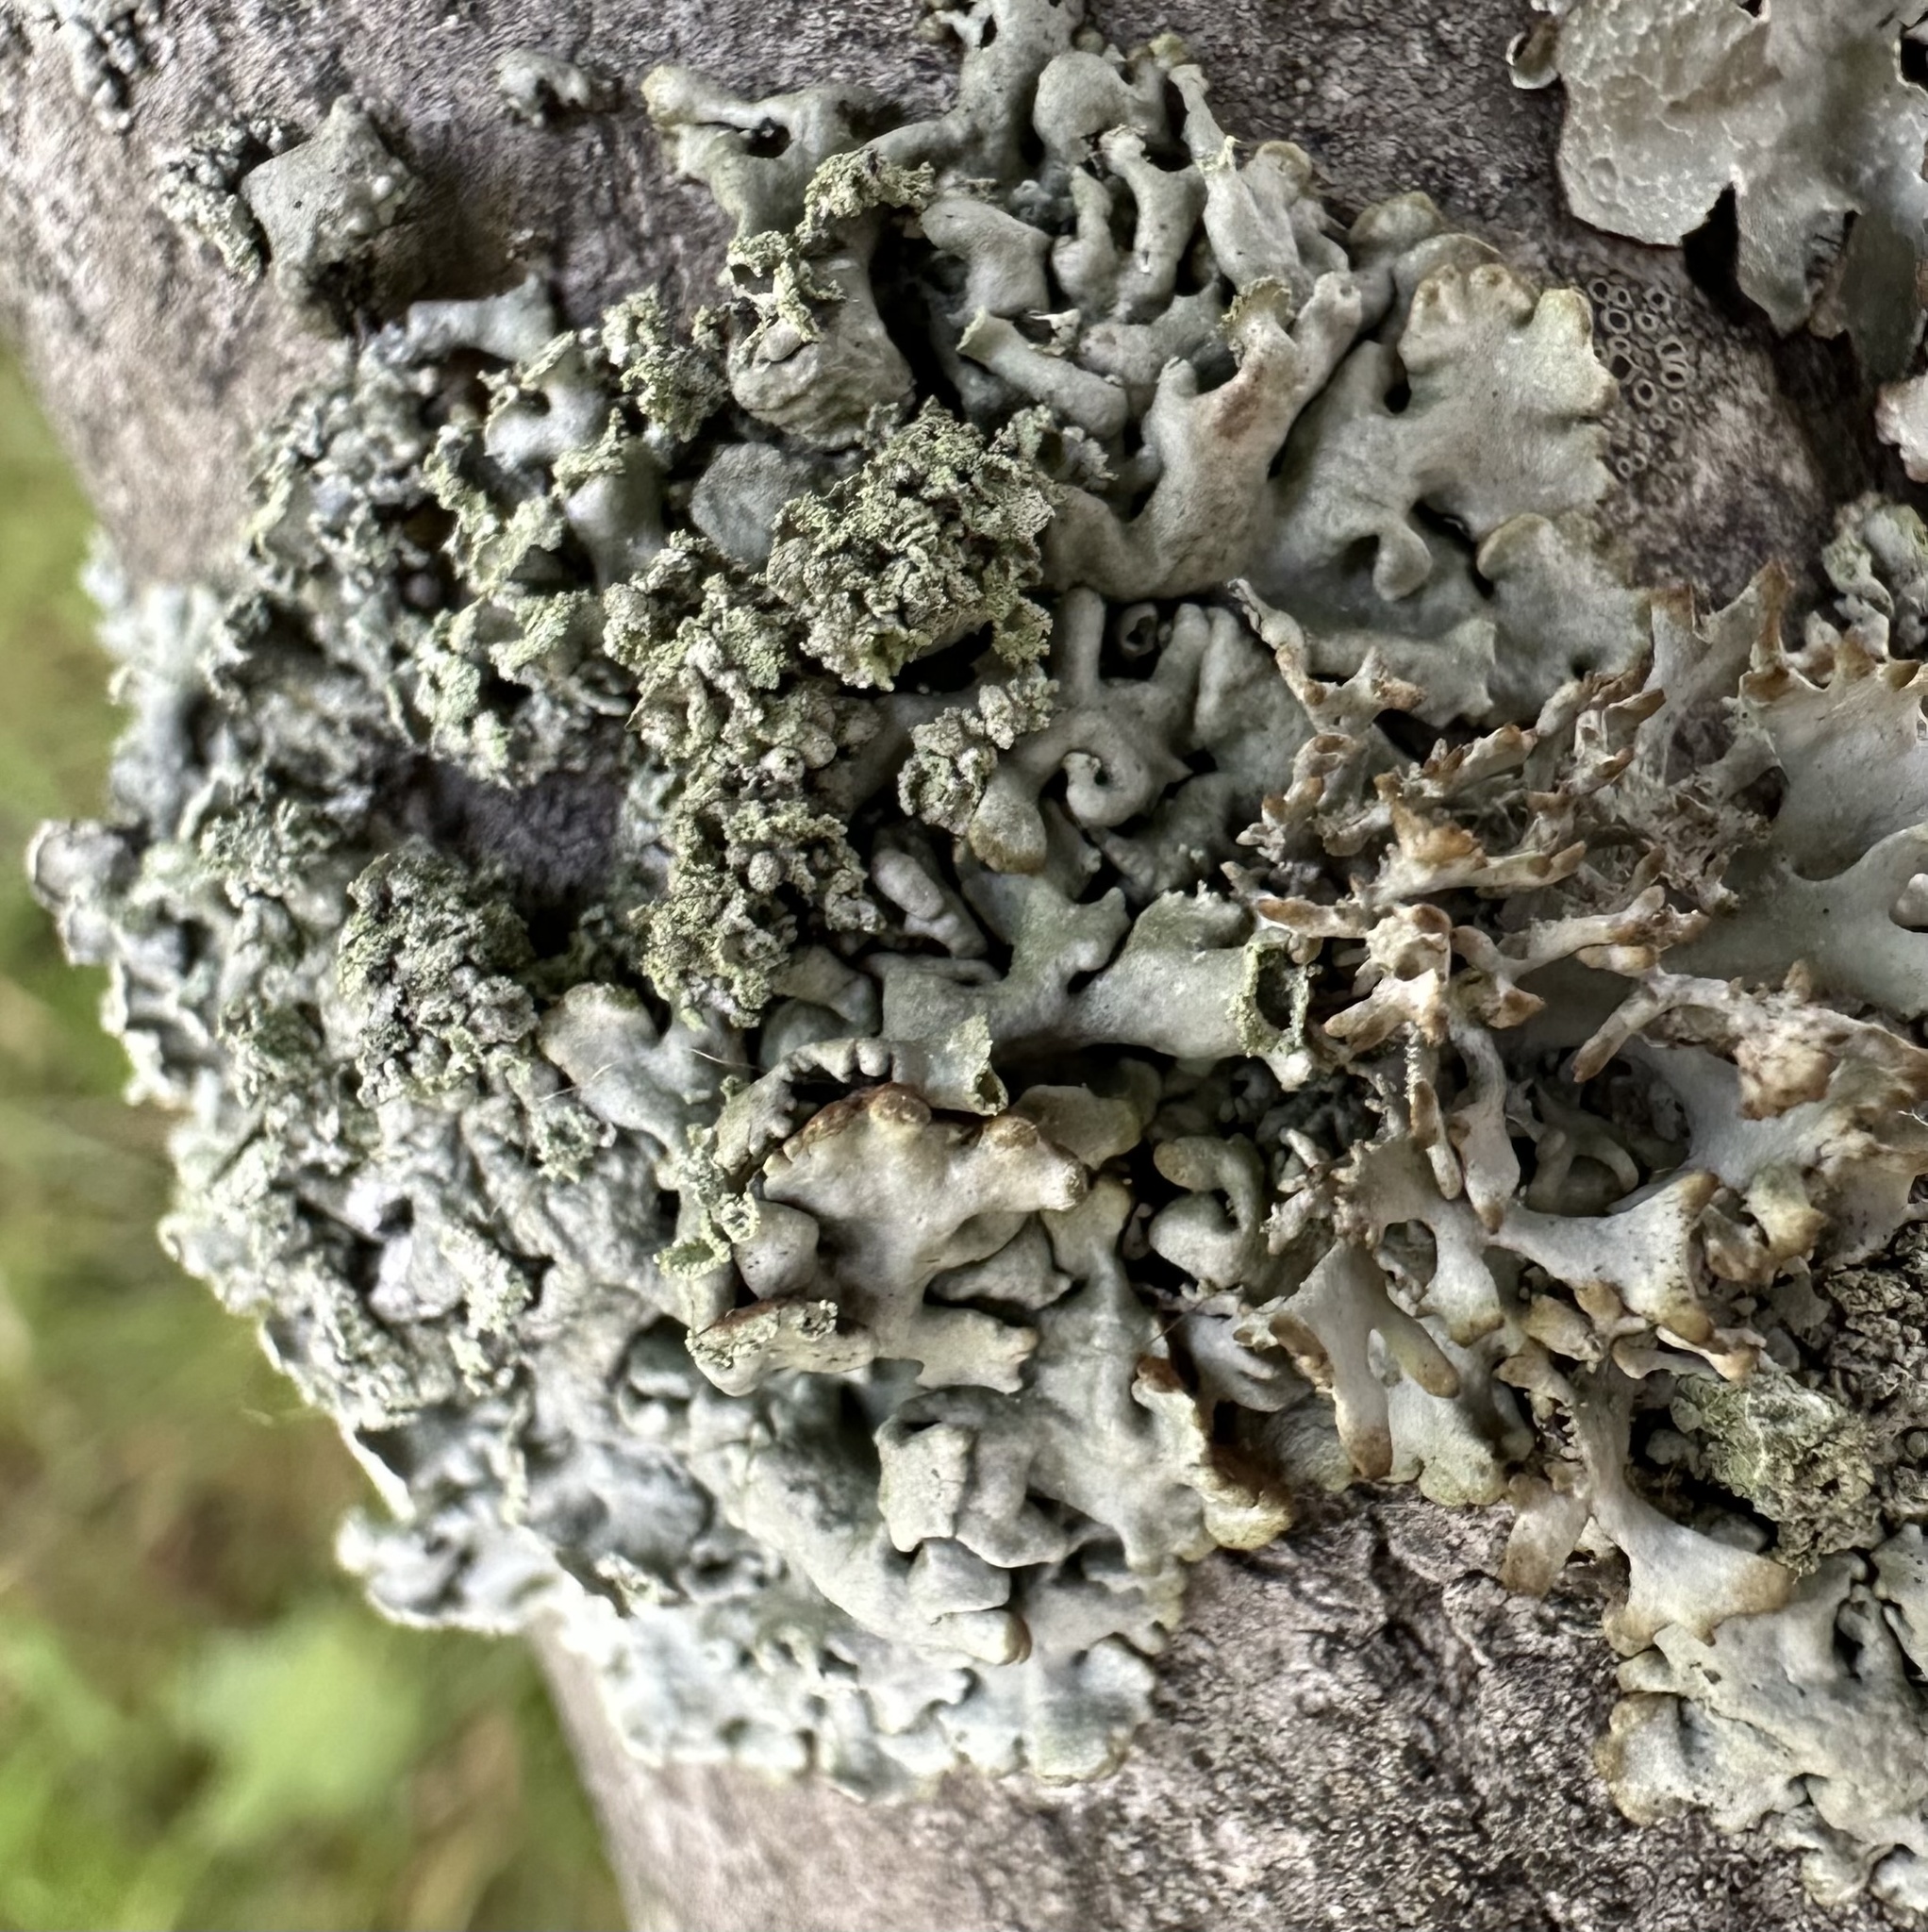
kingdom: Fungi
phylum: Ascomycota
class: Lecanoromycetes
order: Lecanorales
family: Parmeliaceae
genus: Hypogymnia
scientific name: Hypogymnia physodes
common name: Dark crottle
